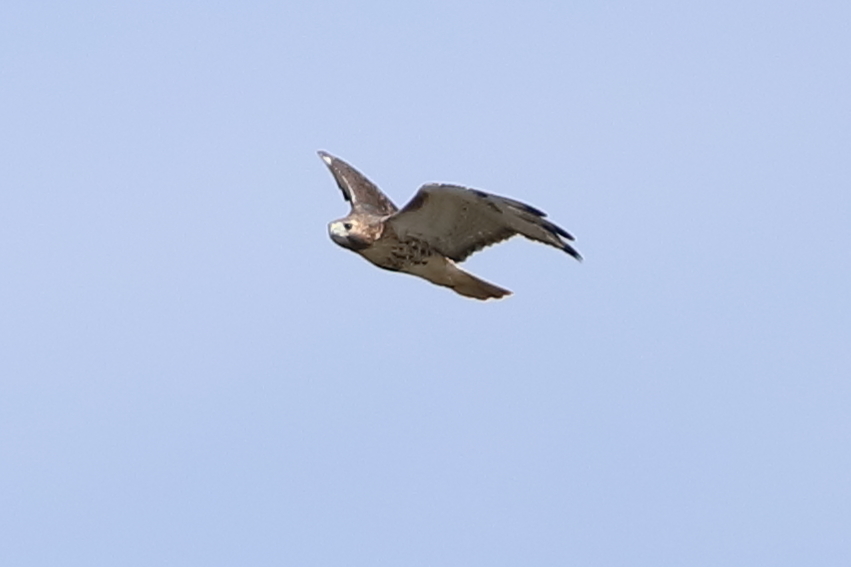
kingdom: Animalia
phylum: Chordata
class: Aves
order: Accipitriformes
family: Accipitridae
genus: Buteo
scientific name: Buteo jamaicensis
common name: Red-tailed hawk
